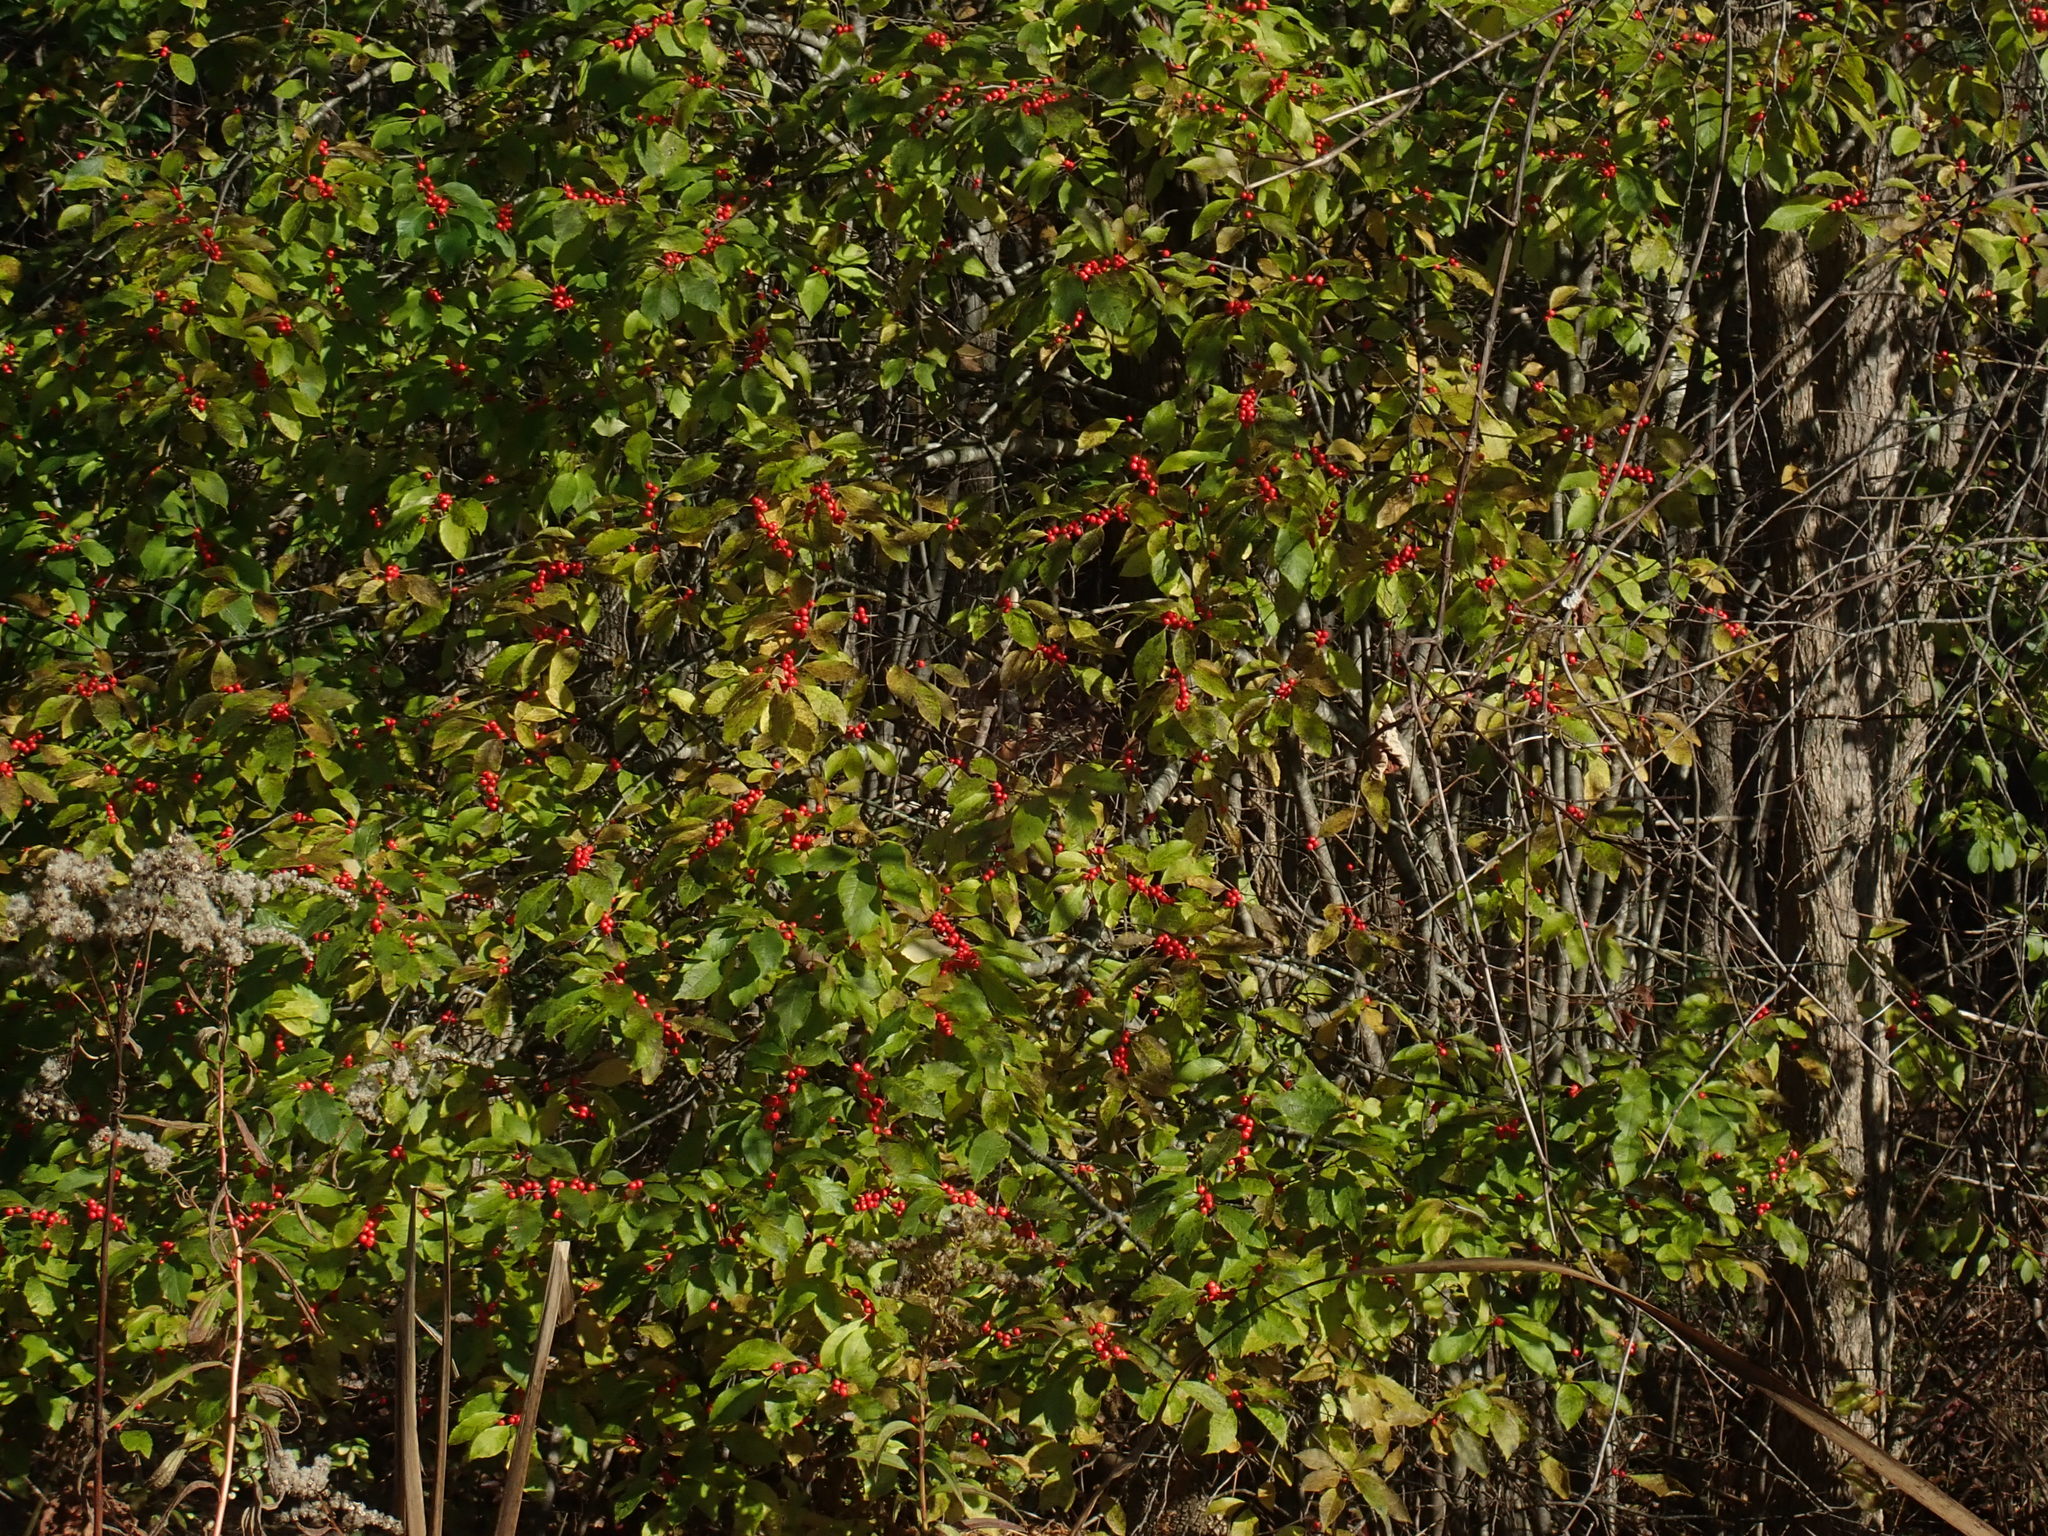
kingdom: Plantae
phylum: Tracheophyta
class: Magnoliopsida
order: Aquifoliales
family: Aquifoliaceae
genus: Ilex
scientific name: Ilex verticillata
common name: Virginia winterberry
